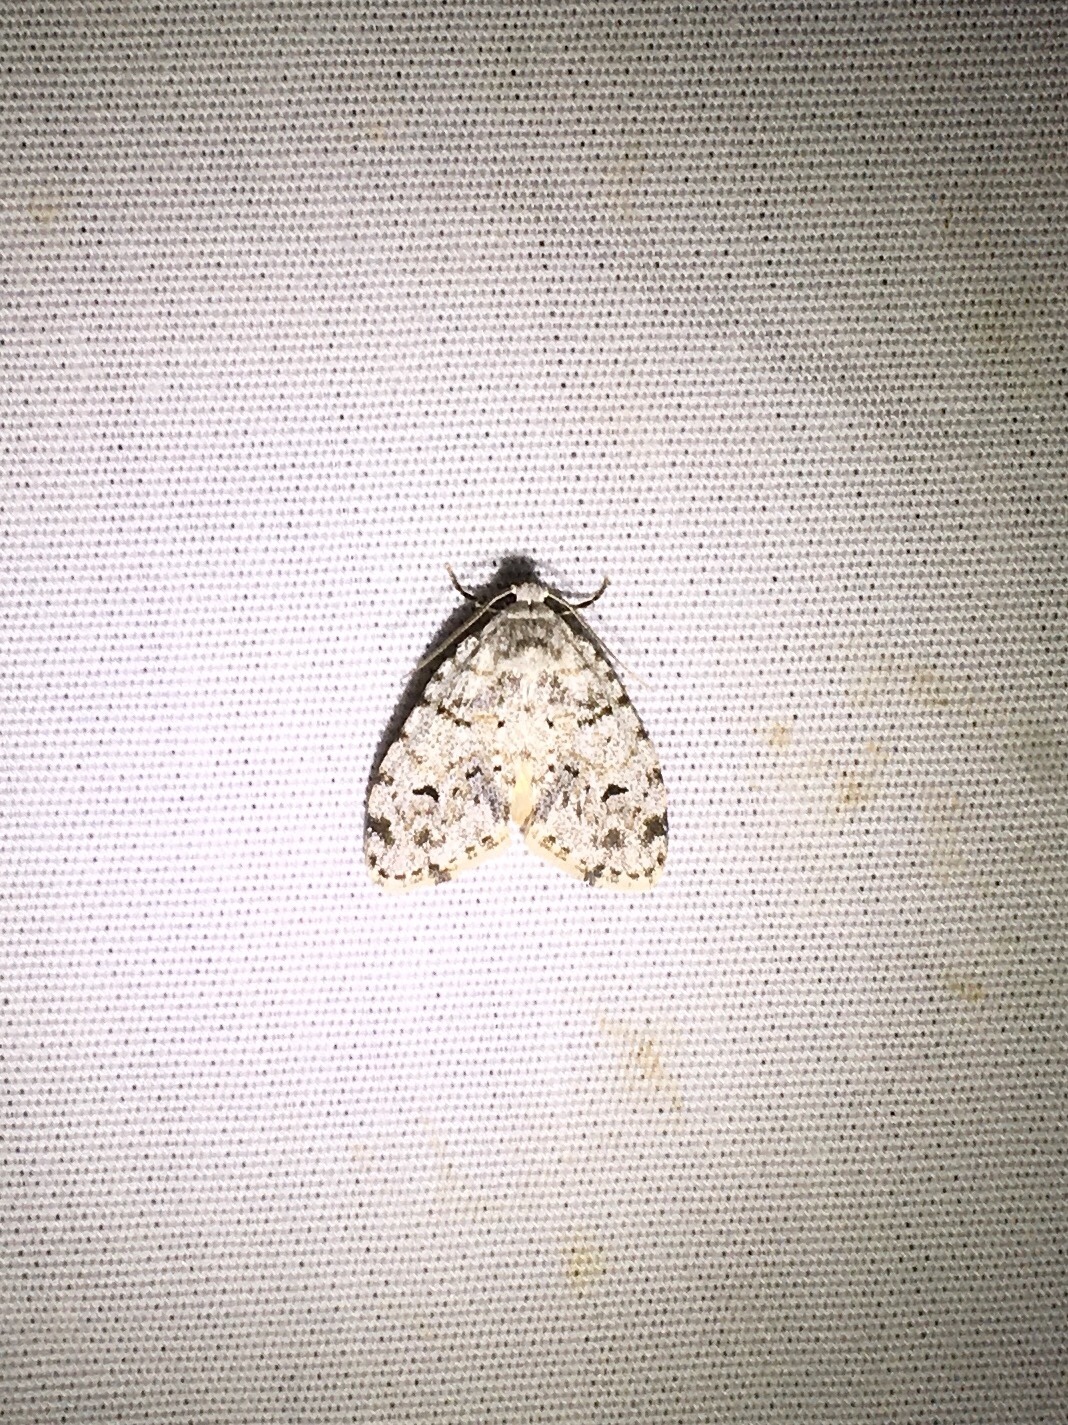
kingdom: Animalia
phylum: Arthropoda
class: Insecta
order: Lepidoptera
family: Erebidae
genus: Clemensia
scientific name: Clemensia albata
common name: Little white lichen moth
